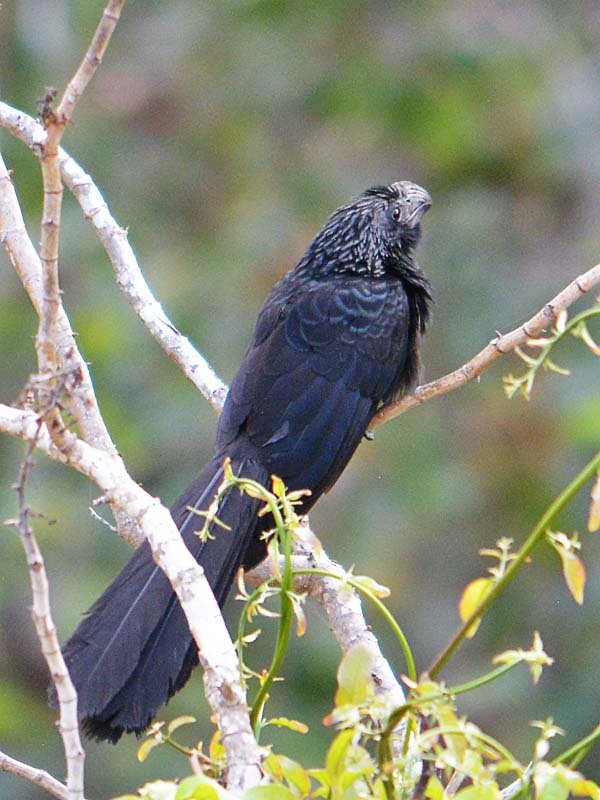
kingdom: Animalia
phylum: Chordata
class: Aves
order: Cuculiformes
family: Cuculidae
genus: Crotophaga
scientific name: Crotophaga sulcirostris
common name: Groove-billed ani
